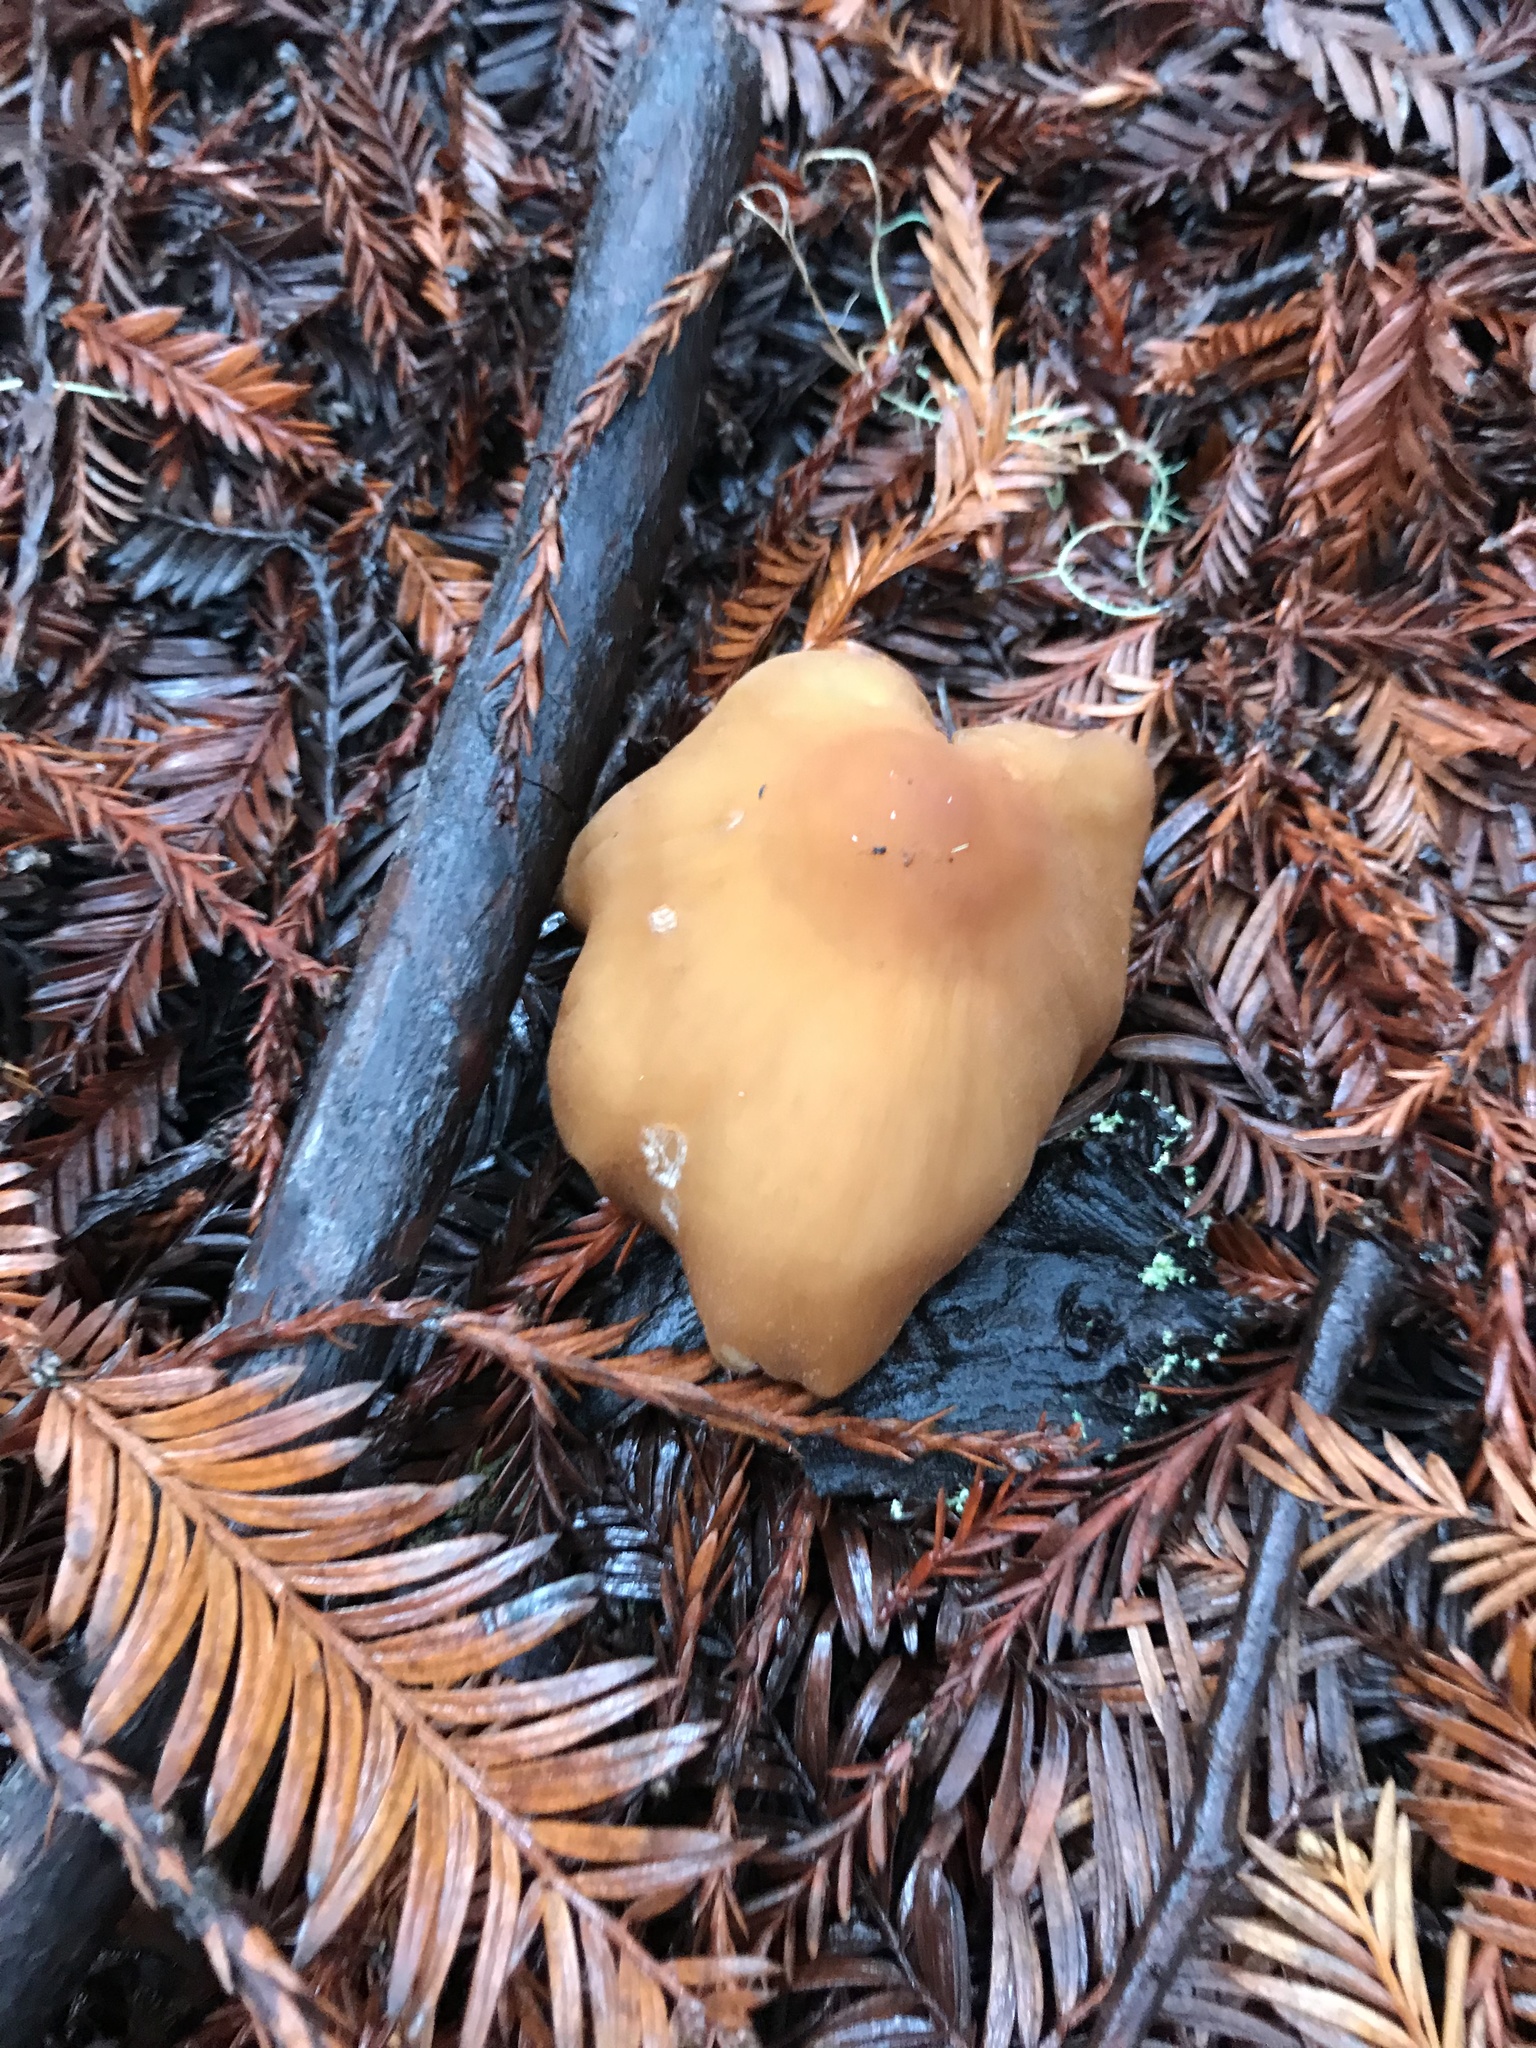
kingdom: Fungi
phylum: Basidiomycota
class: Agaricomycetes
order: Agaricales
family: Tricholomataceae
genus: Caulorhiza
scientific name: Caulorhiza umbonata
